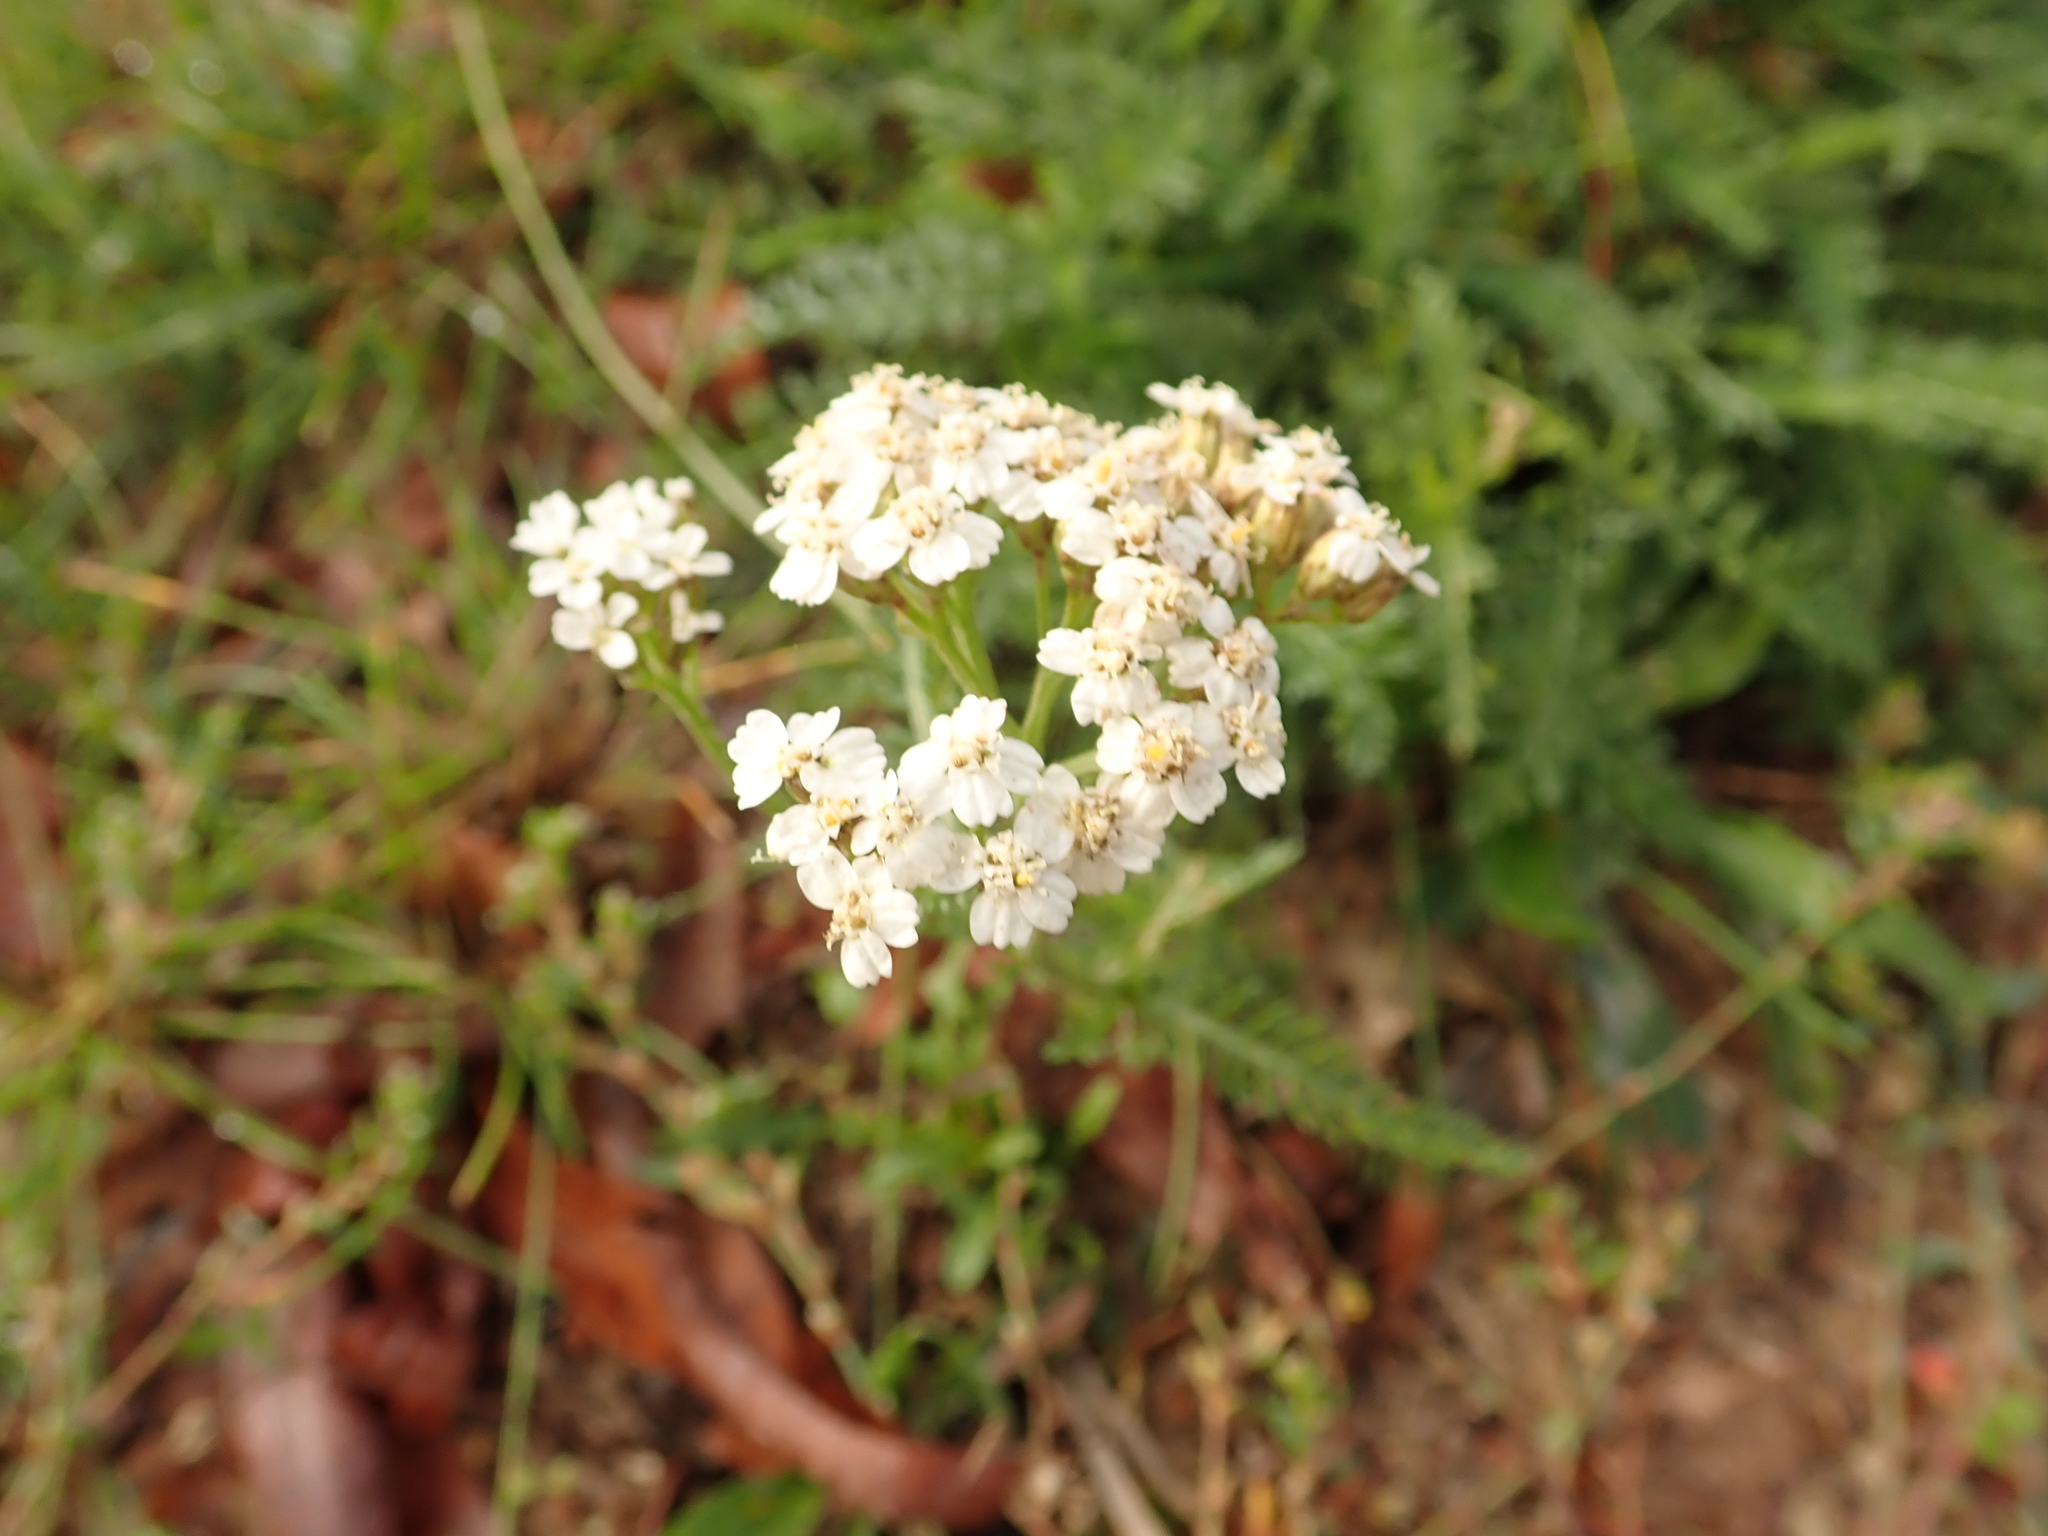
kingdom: Plantae
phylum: Tracheophyta
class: Magnoliopsida
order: Asterales
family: Asteraceae
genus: Achillea
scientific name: Achillea millefolium
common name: Yarrow
